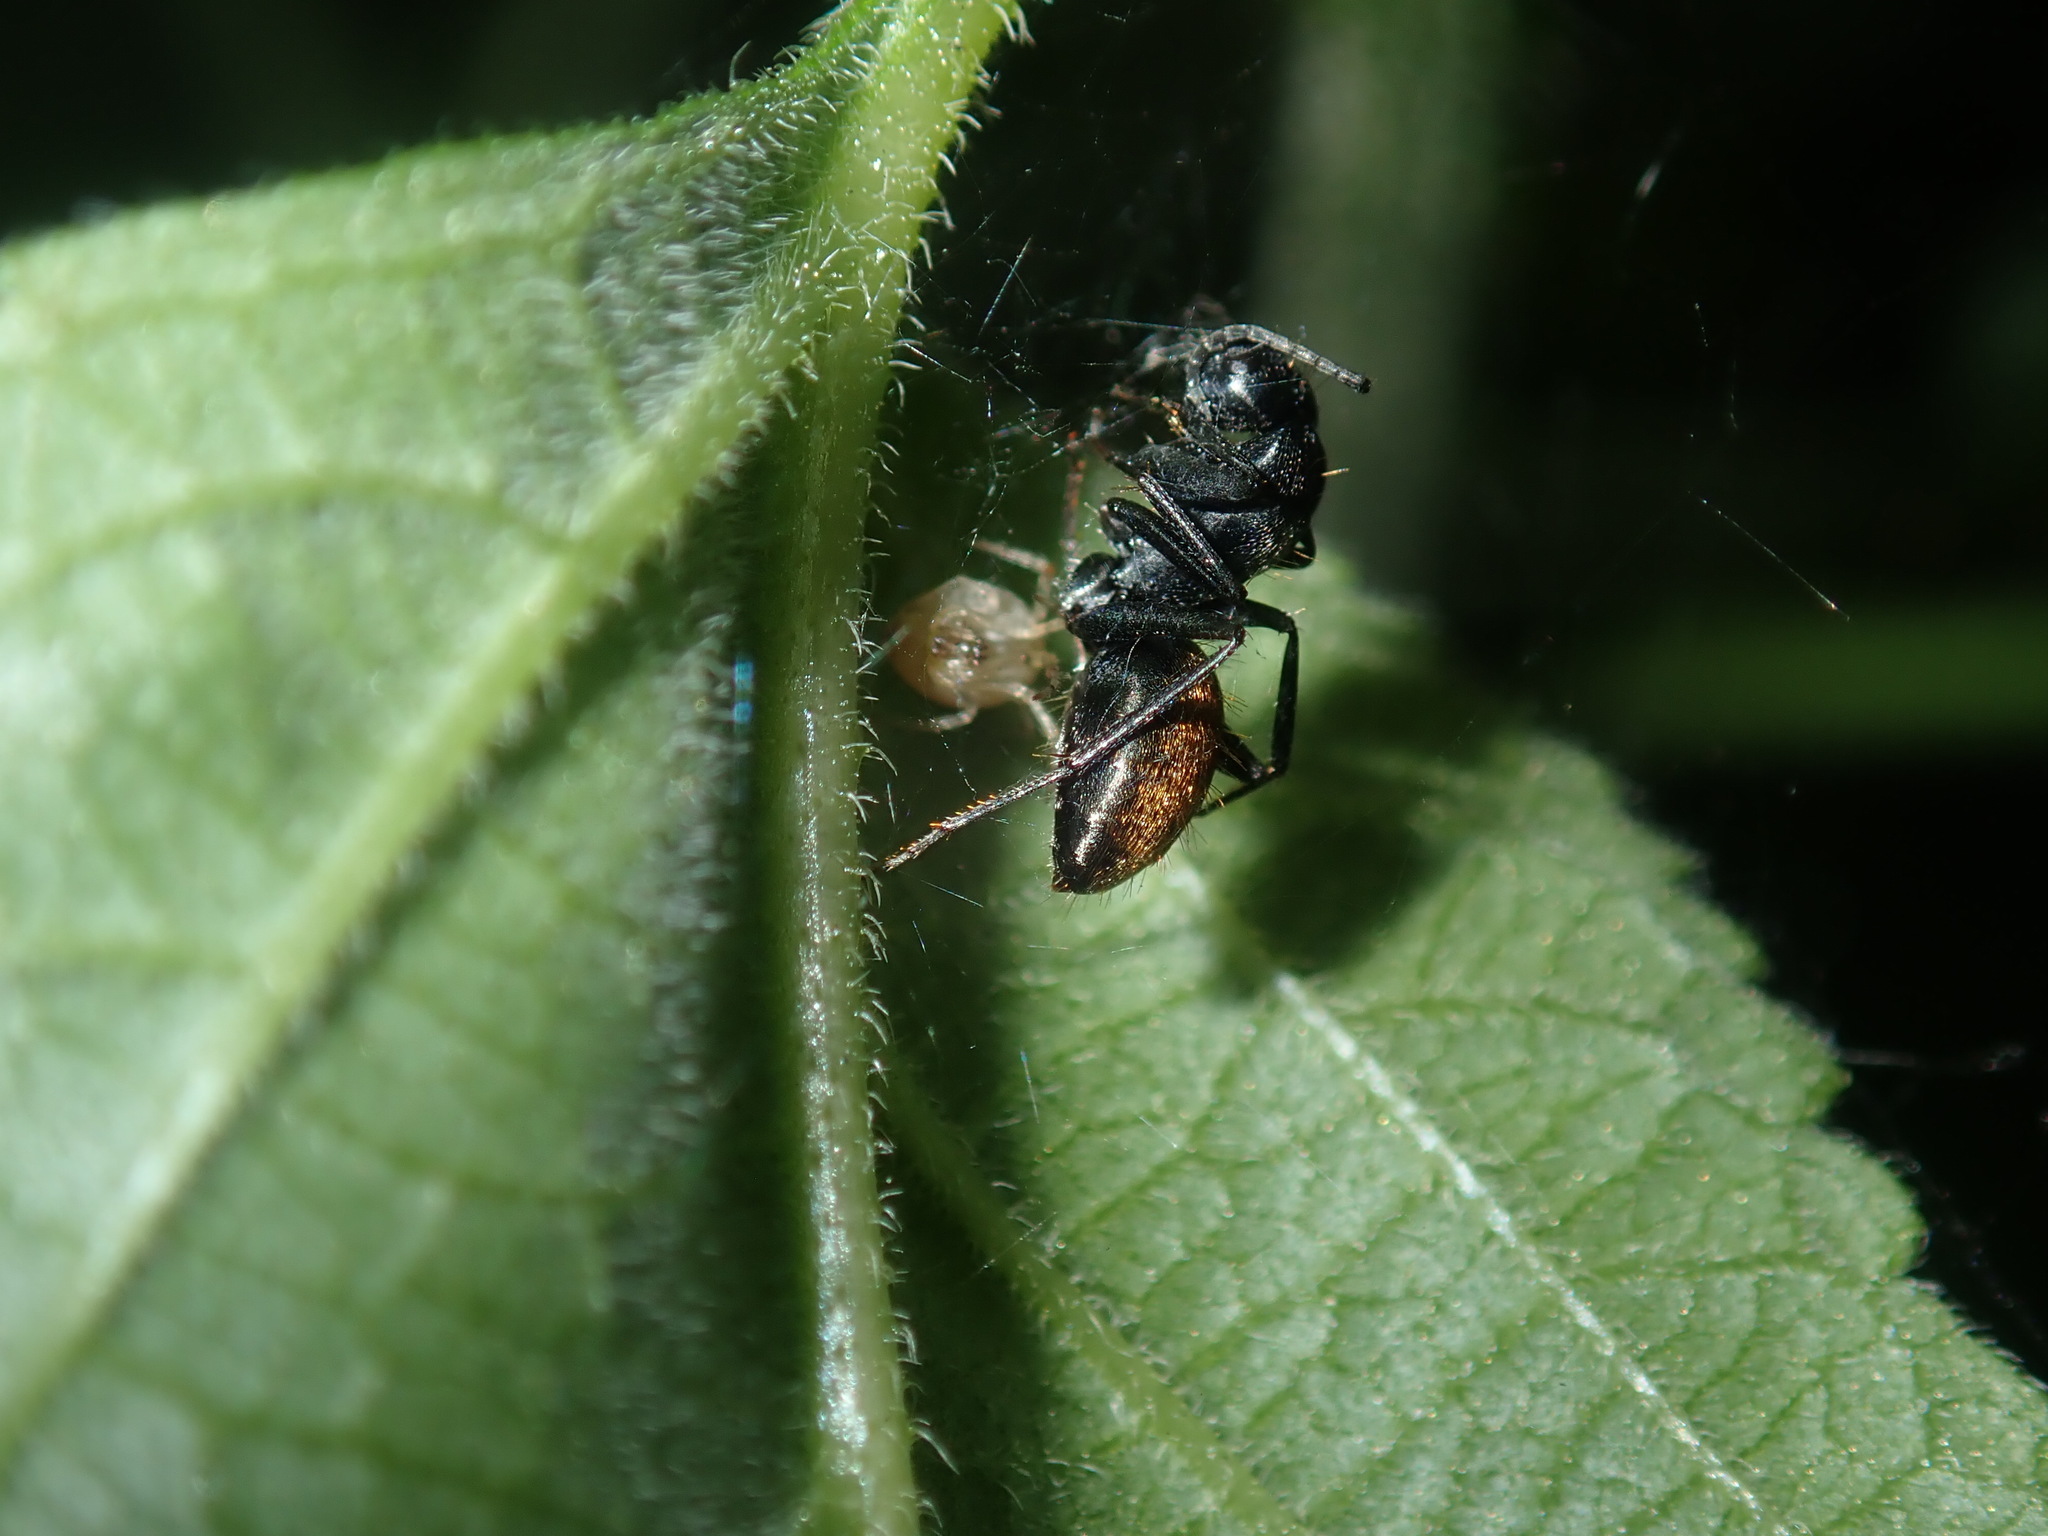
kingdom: Animalia
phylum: Arthropoda
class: Insecta
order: Hymenoptera
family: Formicidae
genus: Camponotus
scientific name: Camponotus aeneopilosus
